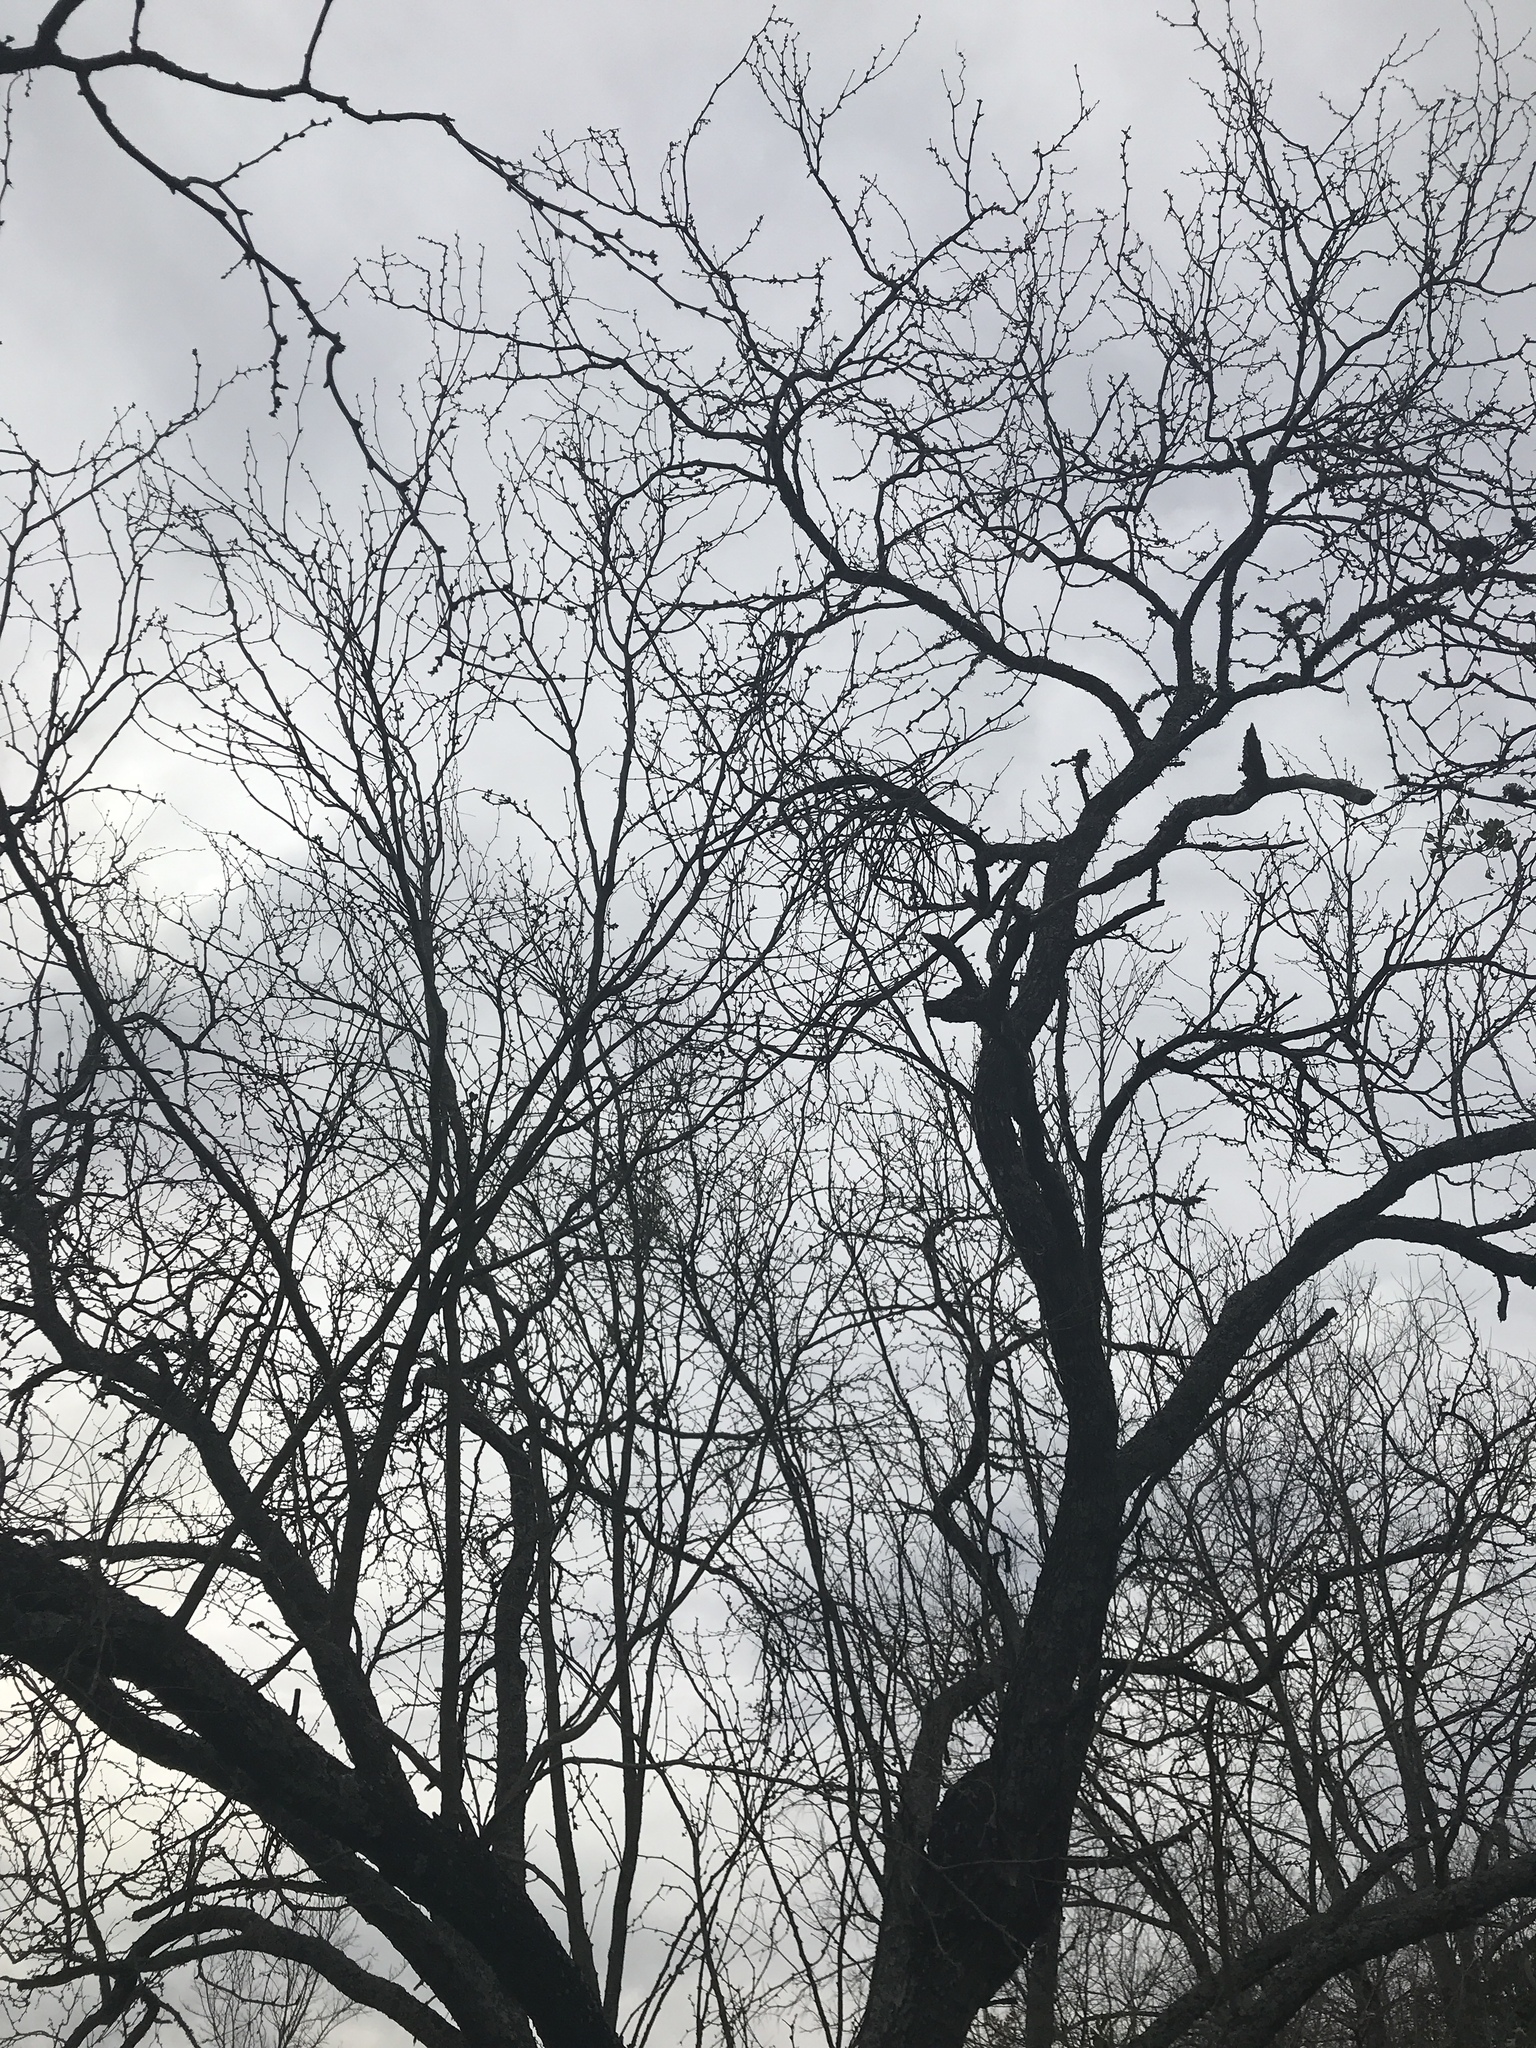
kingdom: Plantae
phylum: Tracheophyta
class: Magnoliopsida
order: Fabales
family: Fabaceae
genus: Prosopis
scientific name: Prosopis glandulosa
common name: Honey mesquite
